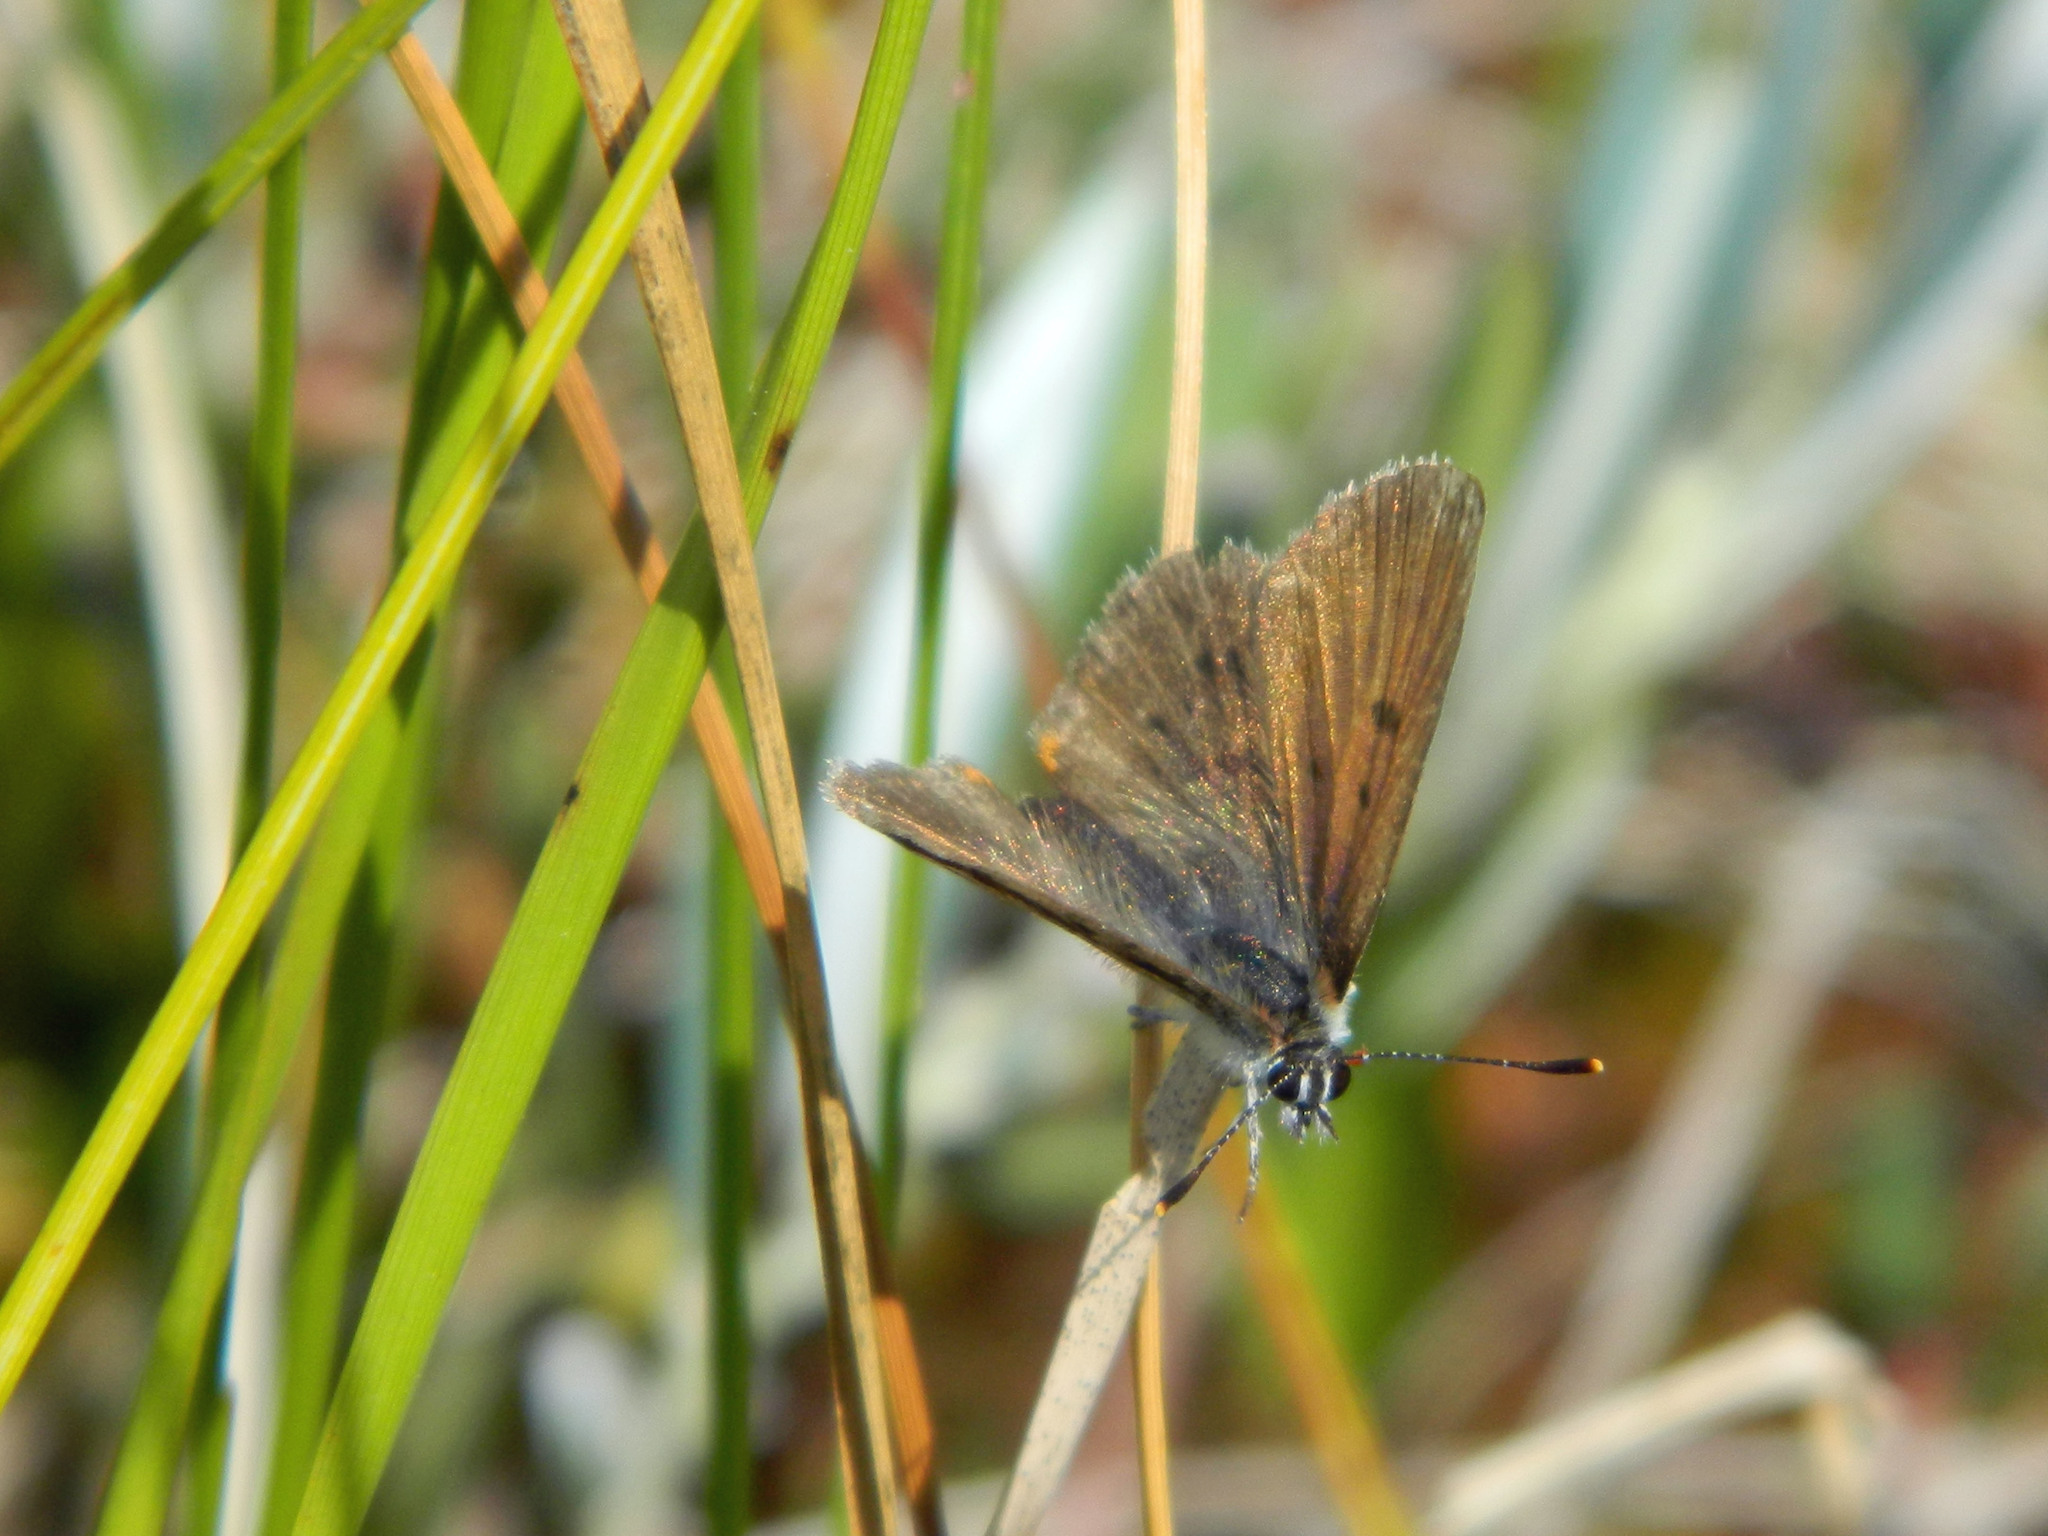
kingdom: Animalia
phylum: Arthropoda
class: Insecta
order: Lepidoptera
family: Lycaenidae
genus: Tharsalea
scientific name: Tharsalea epixanthe
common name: Bog copper
